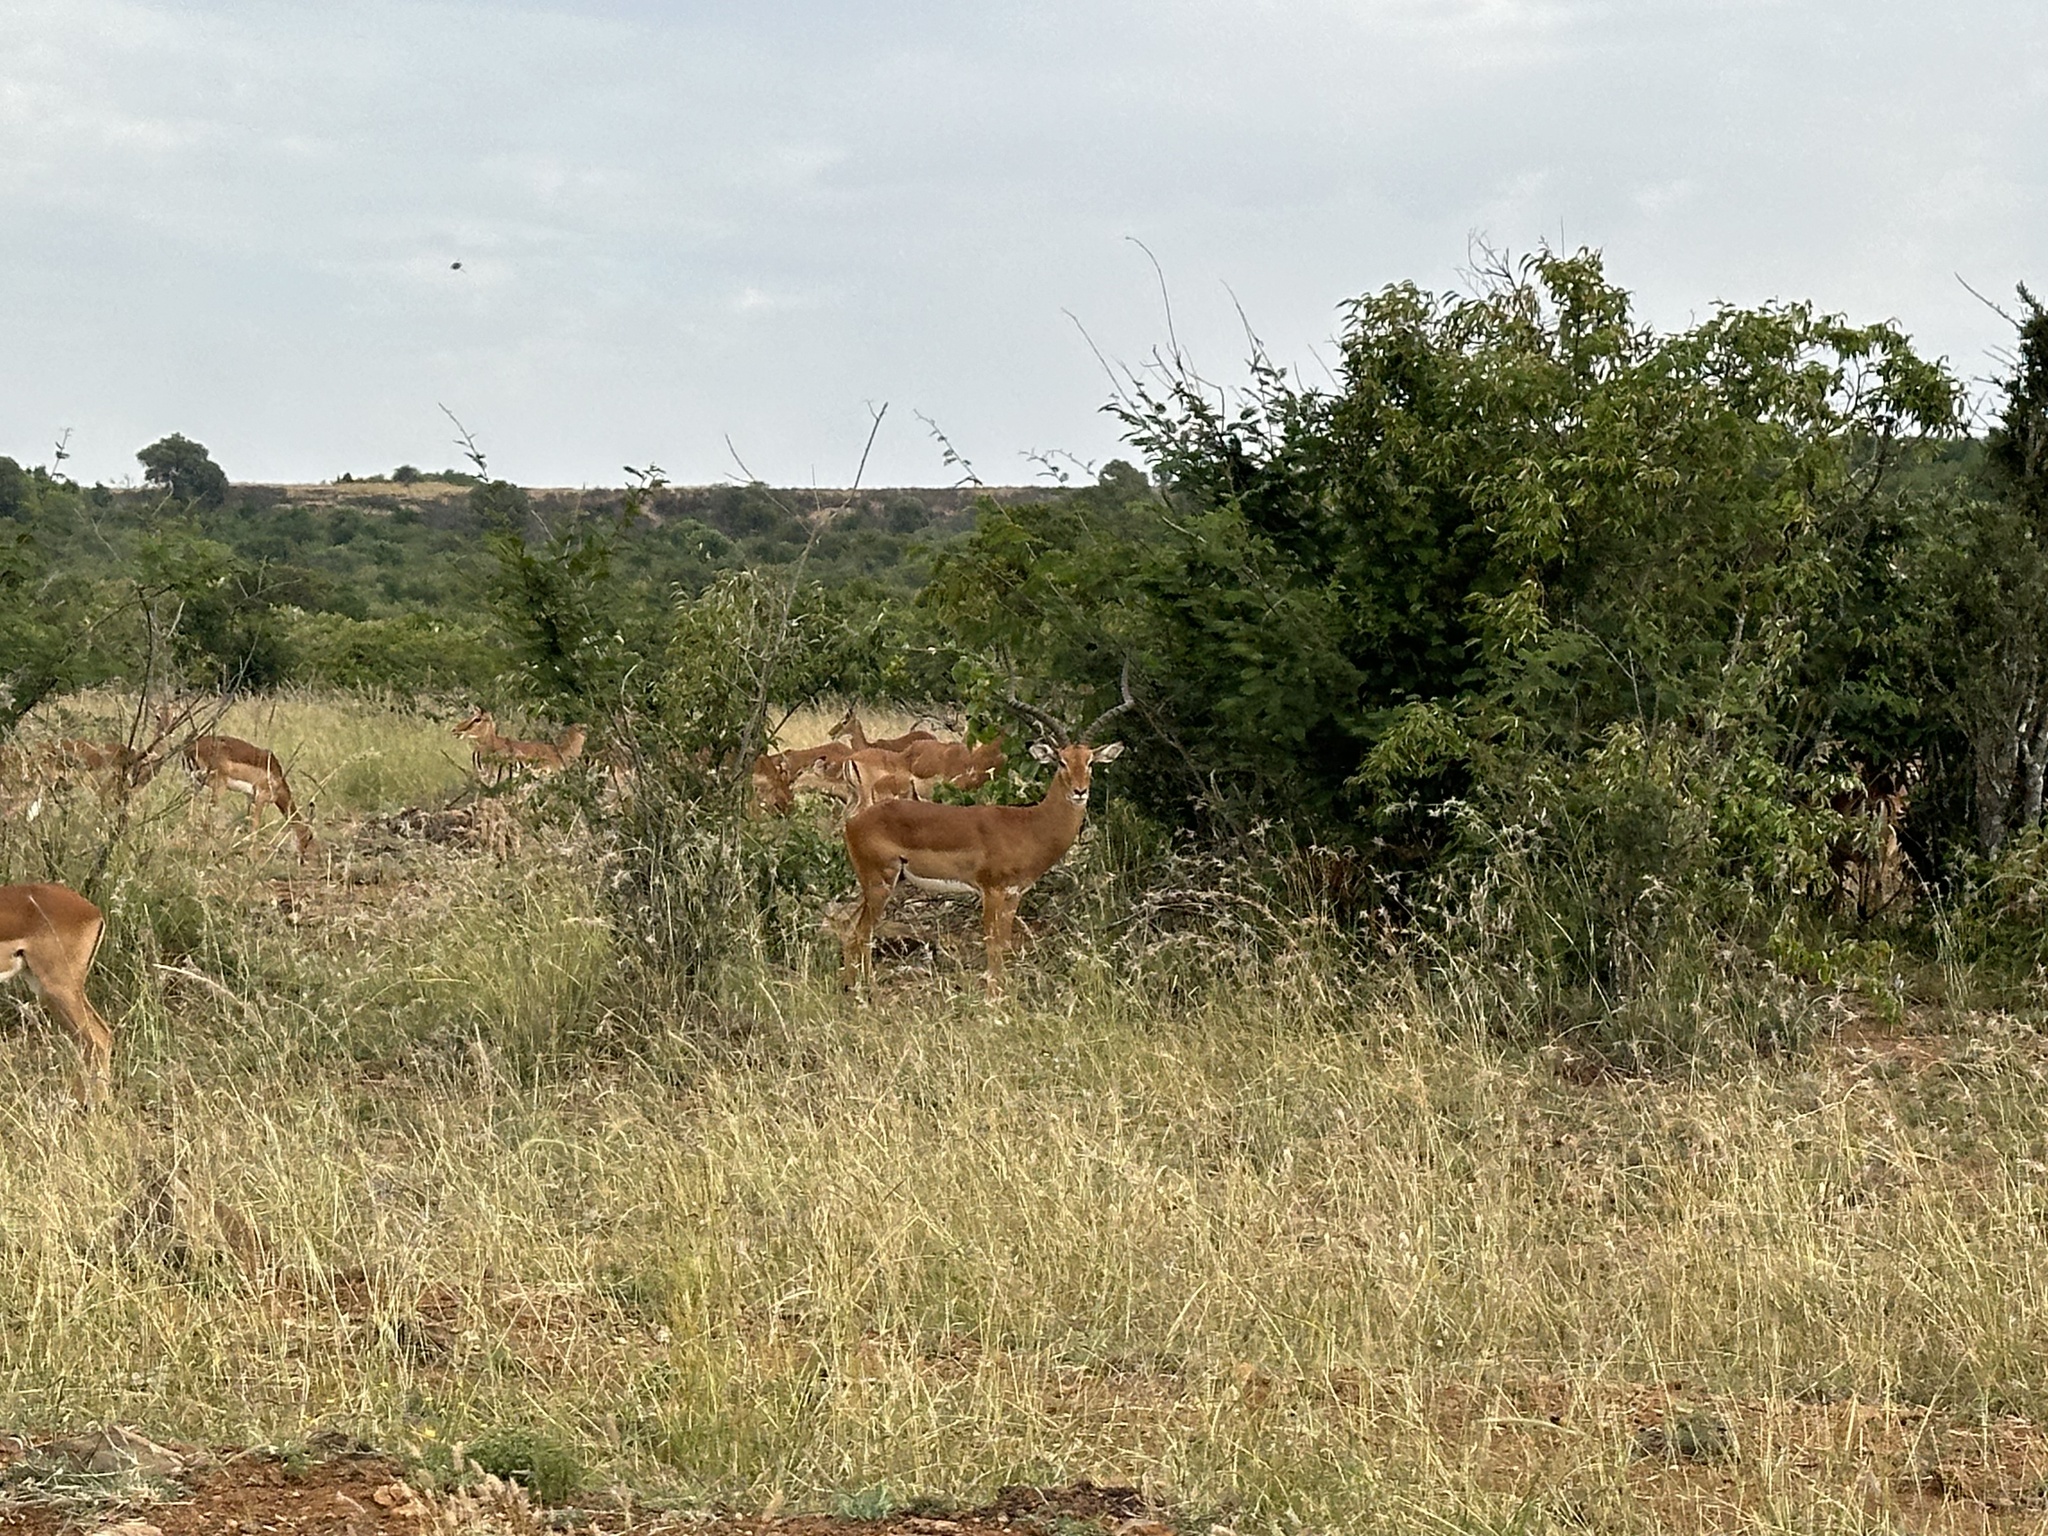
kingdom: Animalia
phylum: Chordata
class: Mammalia
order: Artiodactyla
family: Bovidae
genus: Aepyceros
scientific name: Aepyceros melampus
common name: Impala
